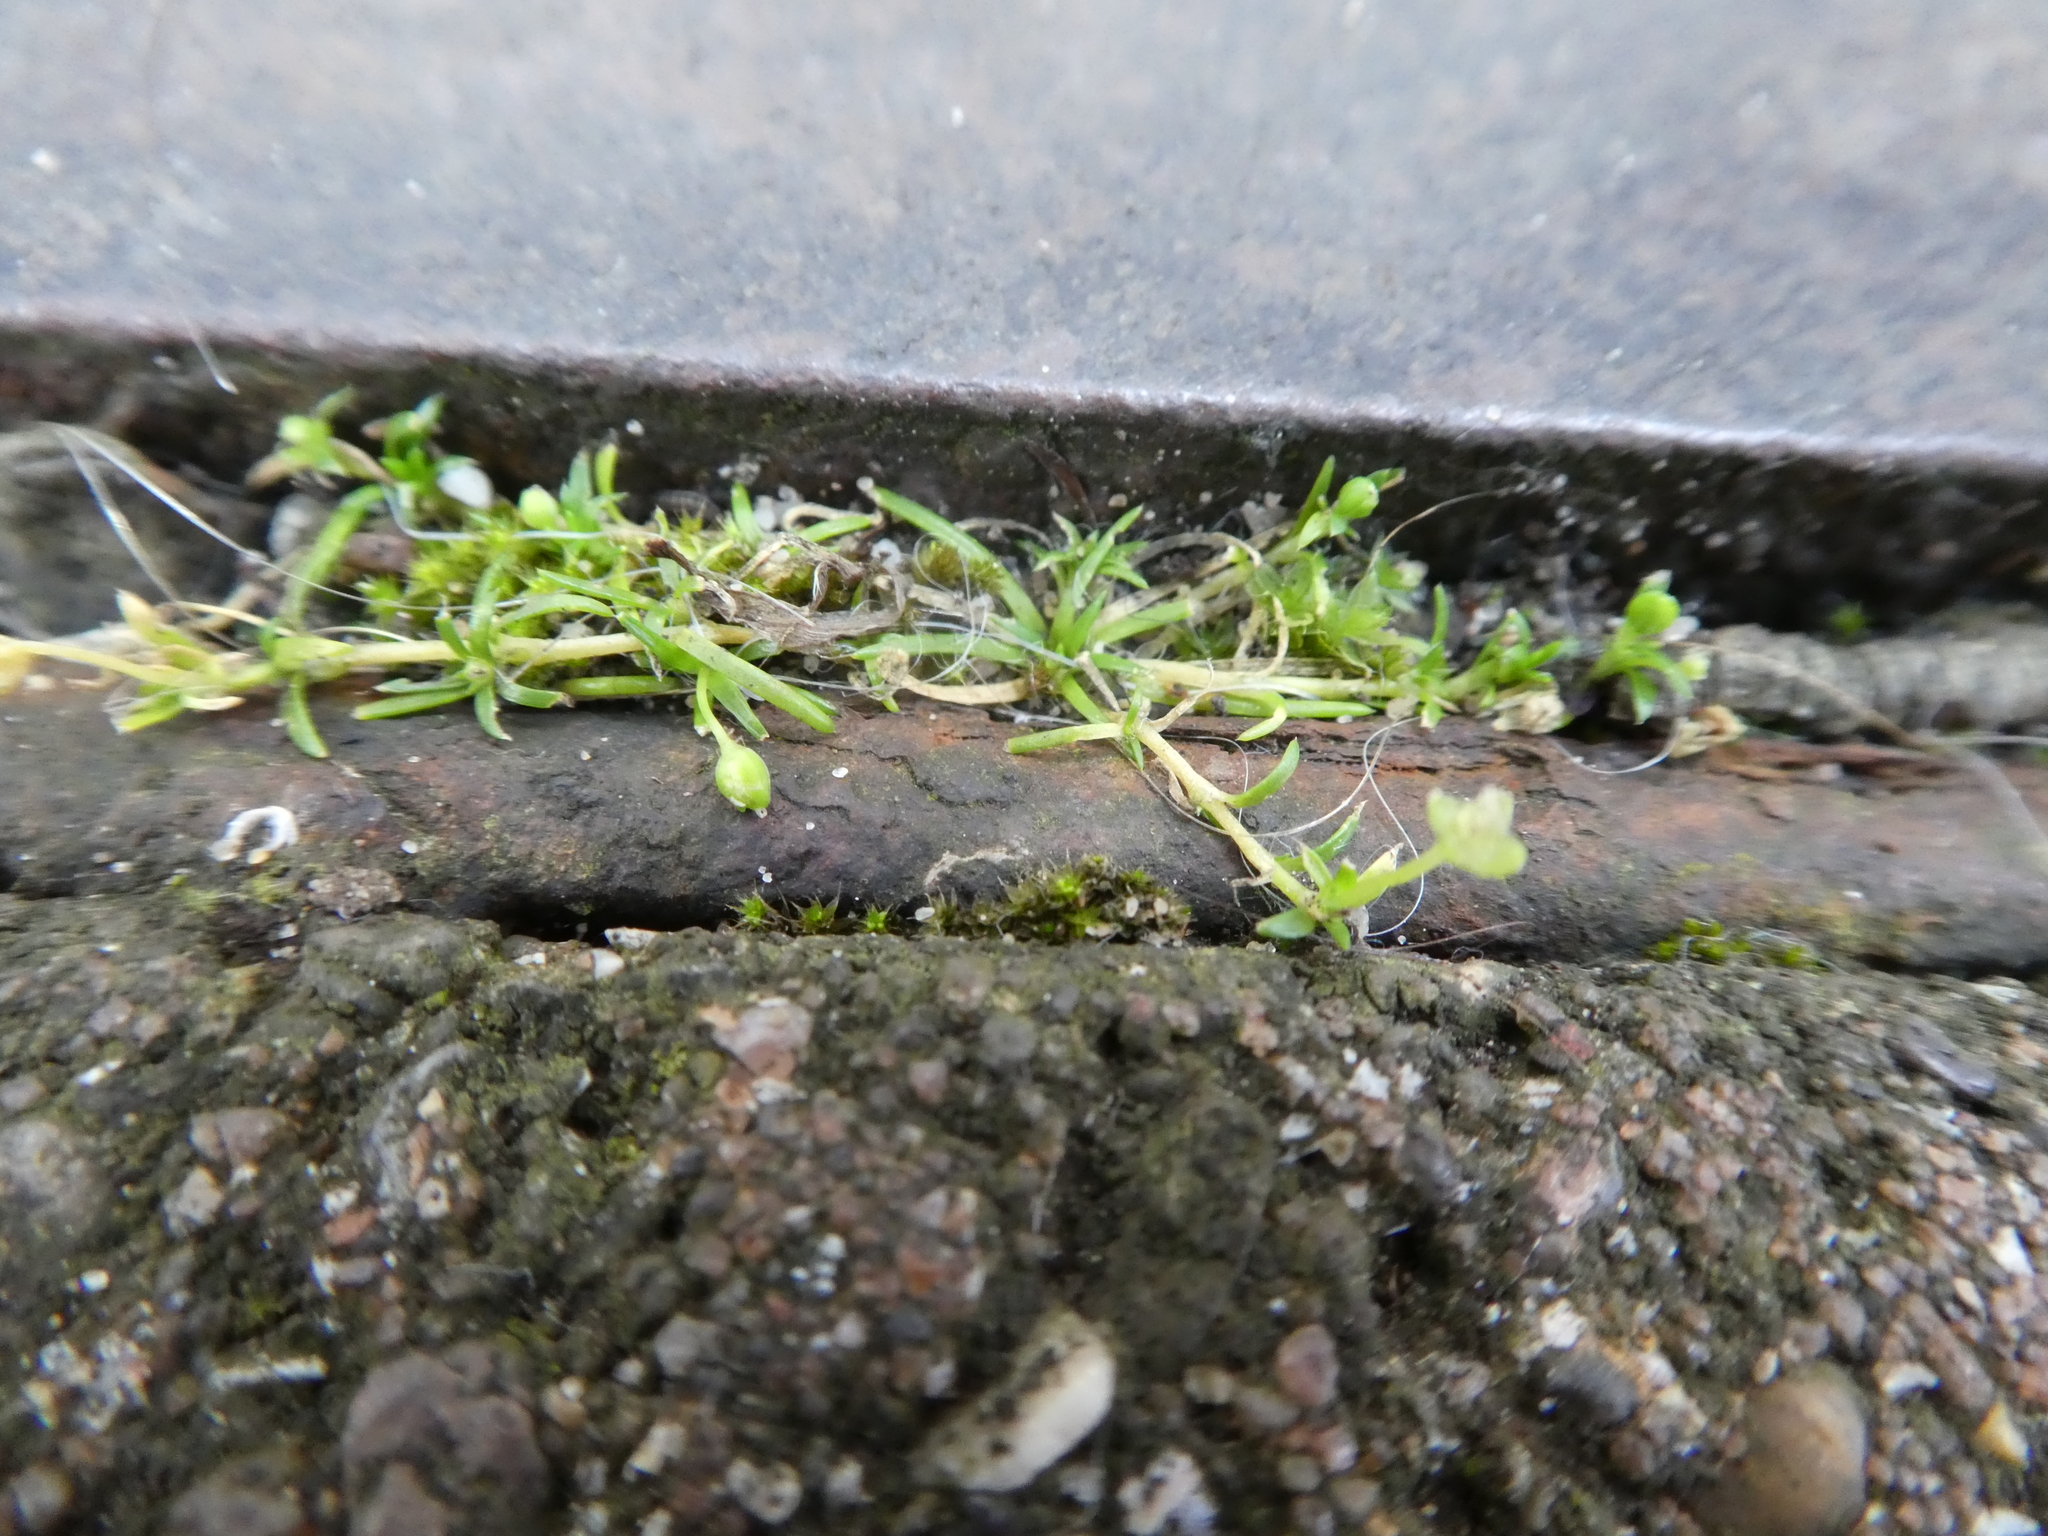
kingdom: Plantae
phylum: Tracheophyta
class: Magnoliopsida
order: Caryophyllales
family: Caryophyllaceae
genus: Sagina
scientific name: Sagina procumbens
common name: Procumbent pearlwort
